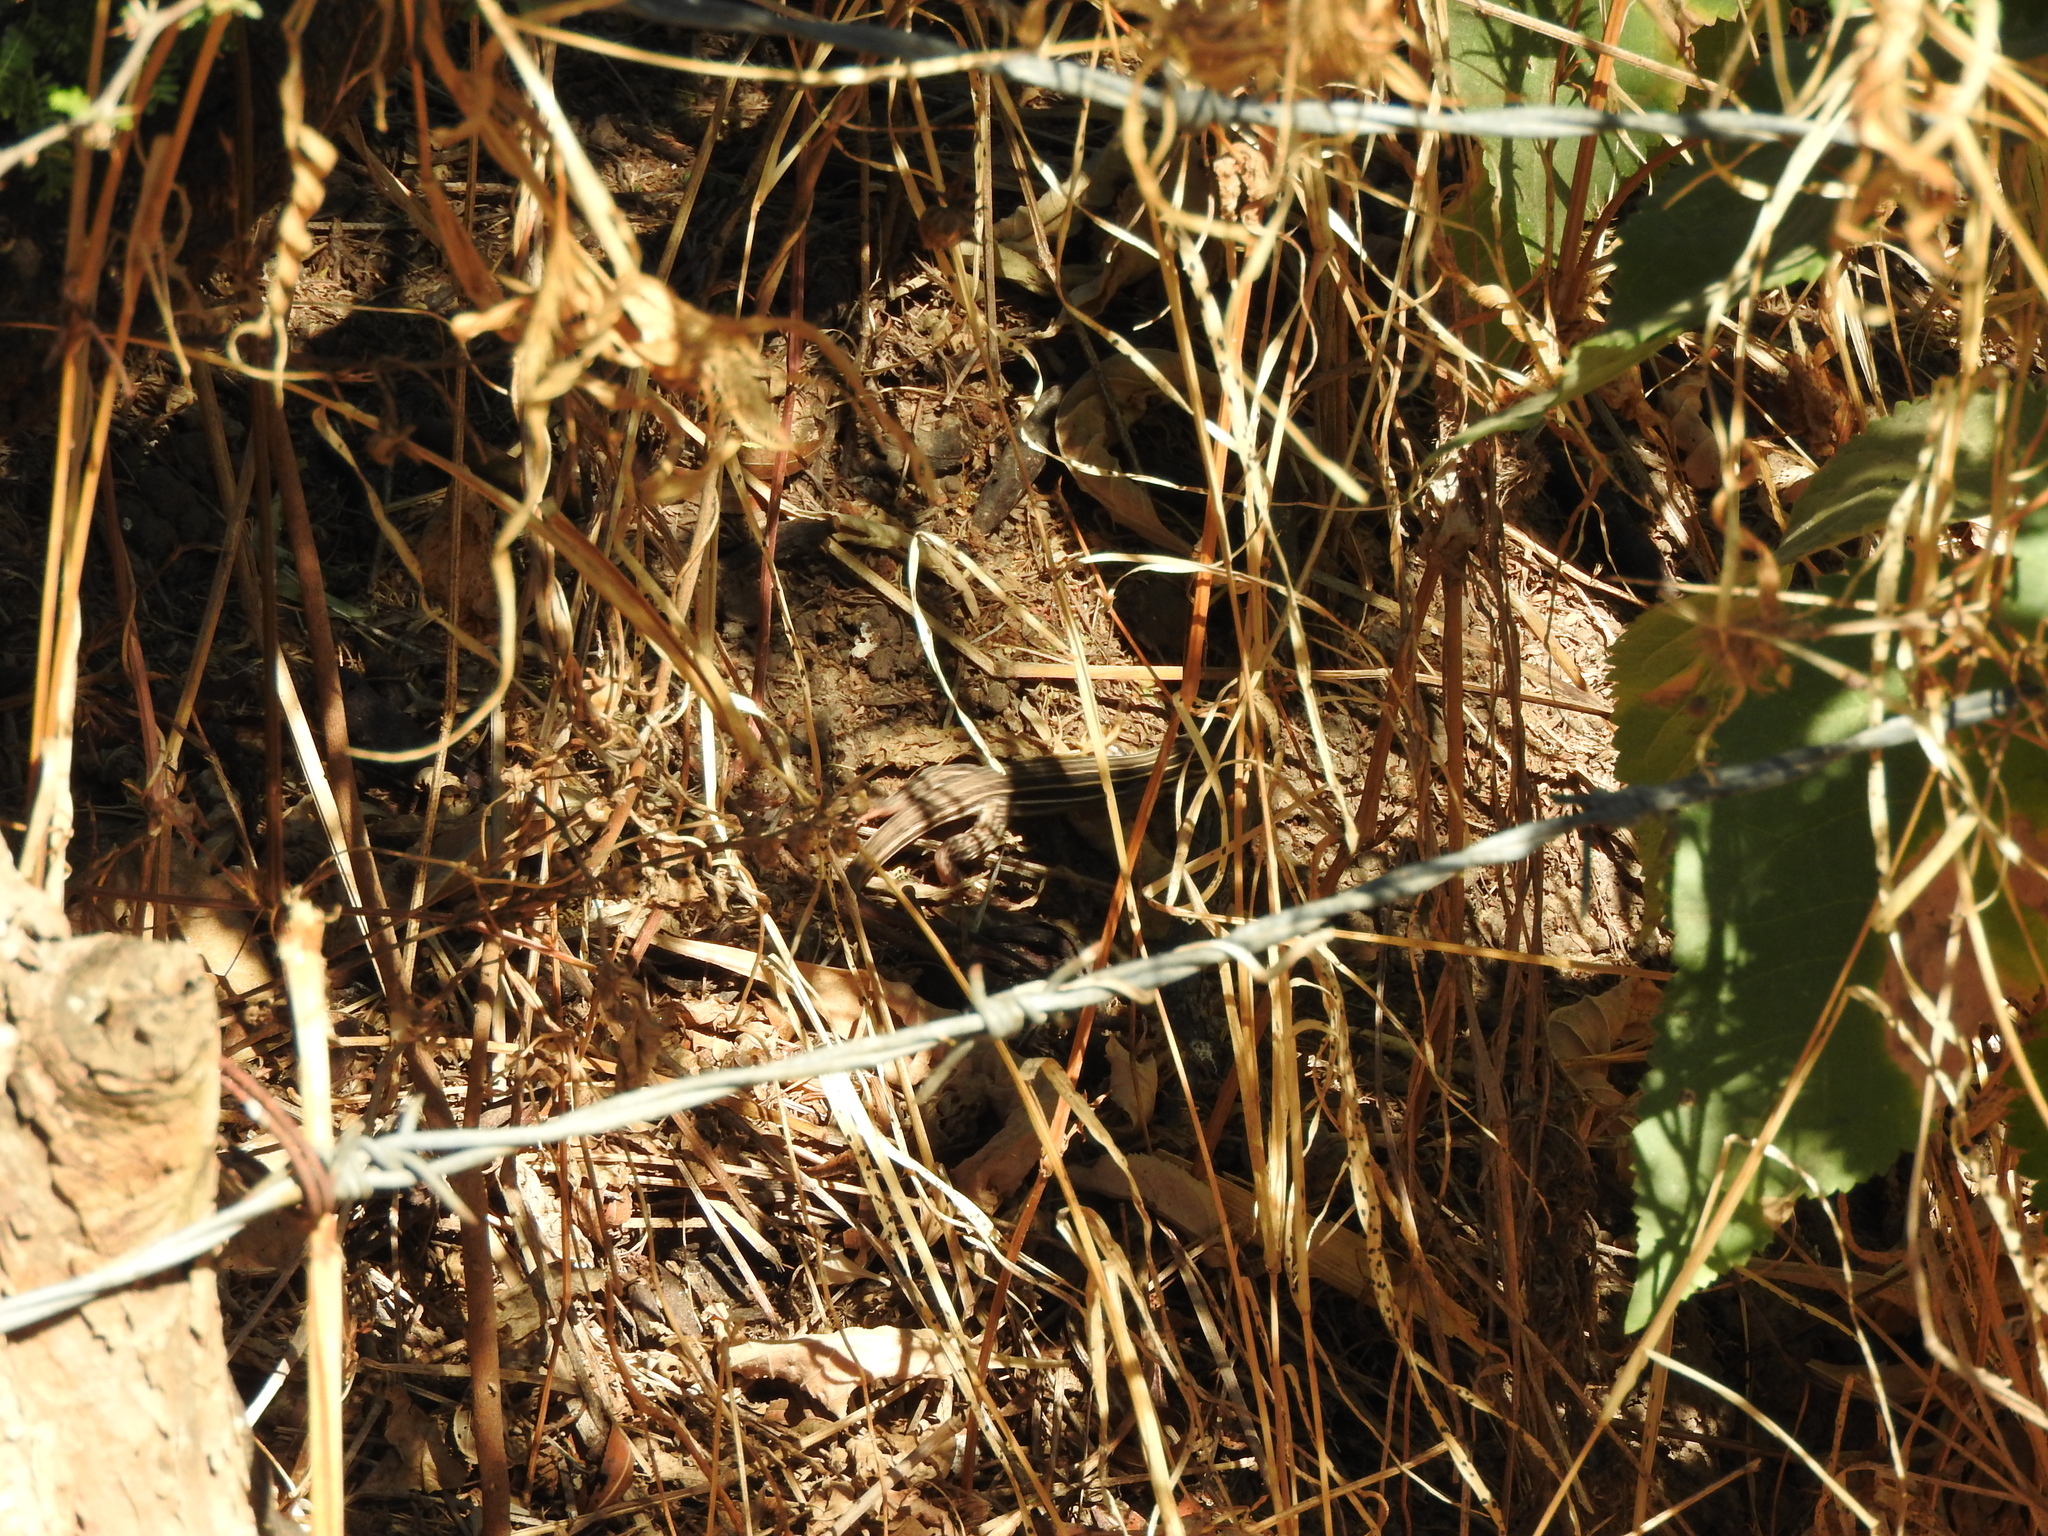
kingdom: Animalia
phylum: Chordata
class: Squamata
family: Teiidae
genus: Aspidoscelis
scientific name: Aspidoscelis gularis
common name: Eastern spotted whiptail
